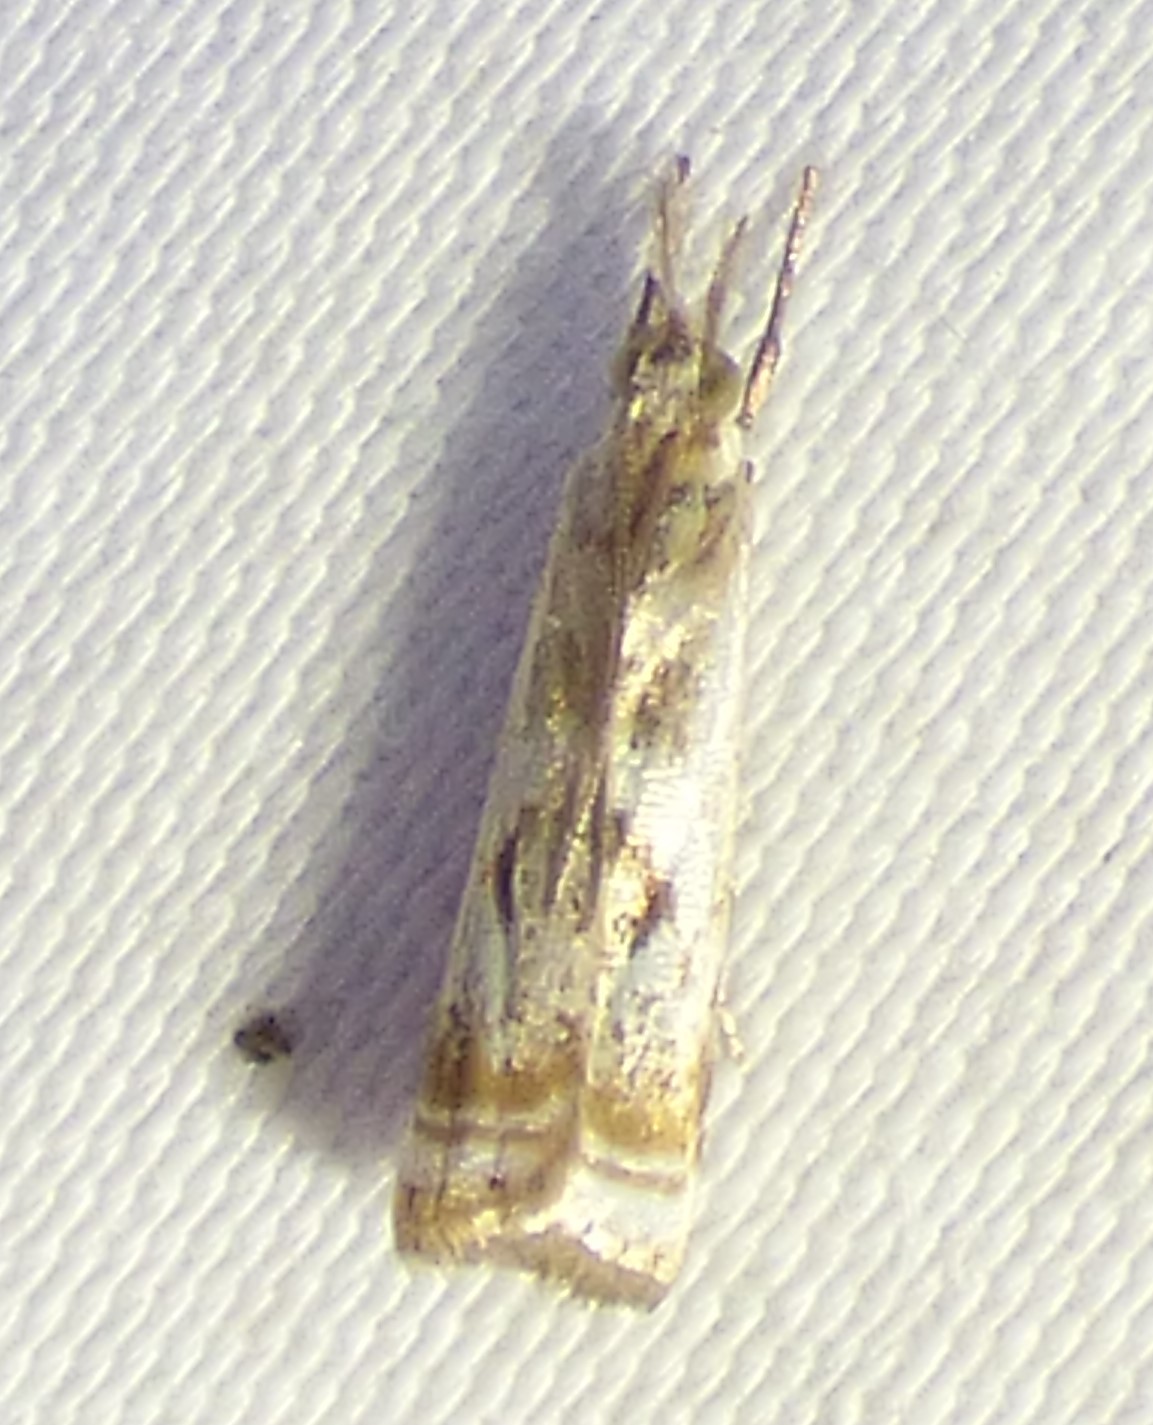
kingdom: Animalia
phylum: Arthropoda
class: Insecta
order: Lepidoptera
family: Crambidae
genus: Microcrambus
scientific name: Microcrambus elegans
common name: Elegant grass-veneer
